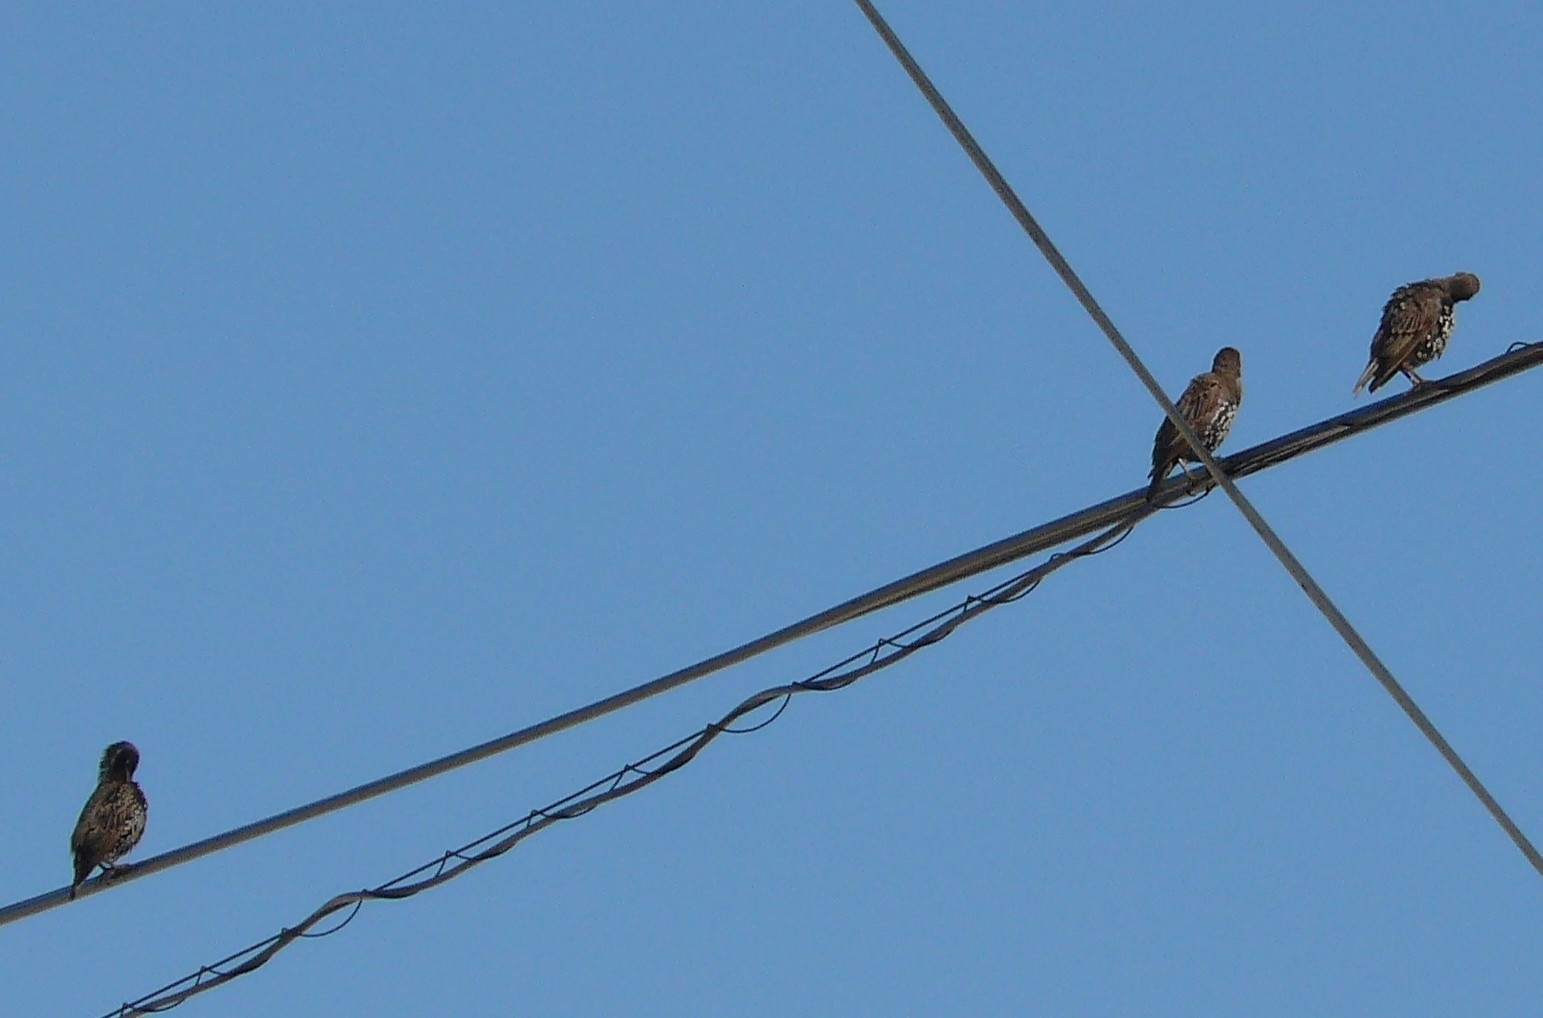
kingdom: Animalia
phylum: Chordata
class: Aves
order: Passeriformes
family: Sturnidae
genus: Sturnus
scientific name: Sturnus vulgaris
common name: Common starling
